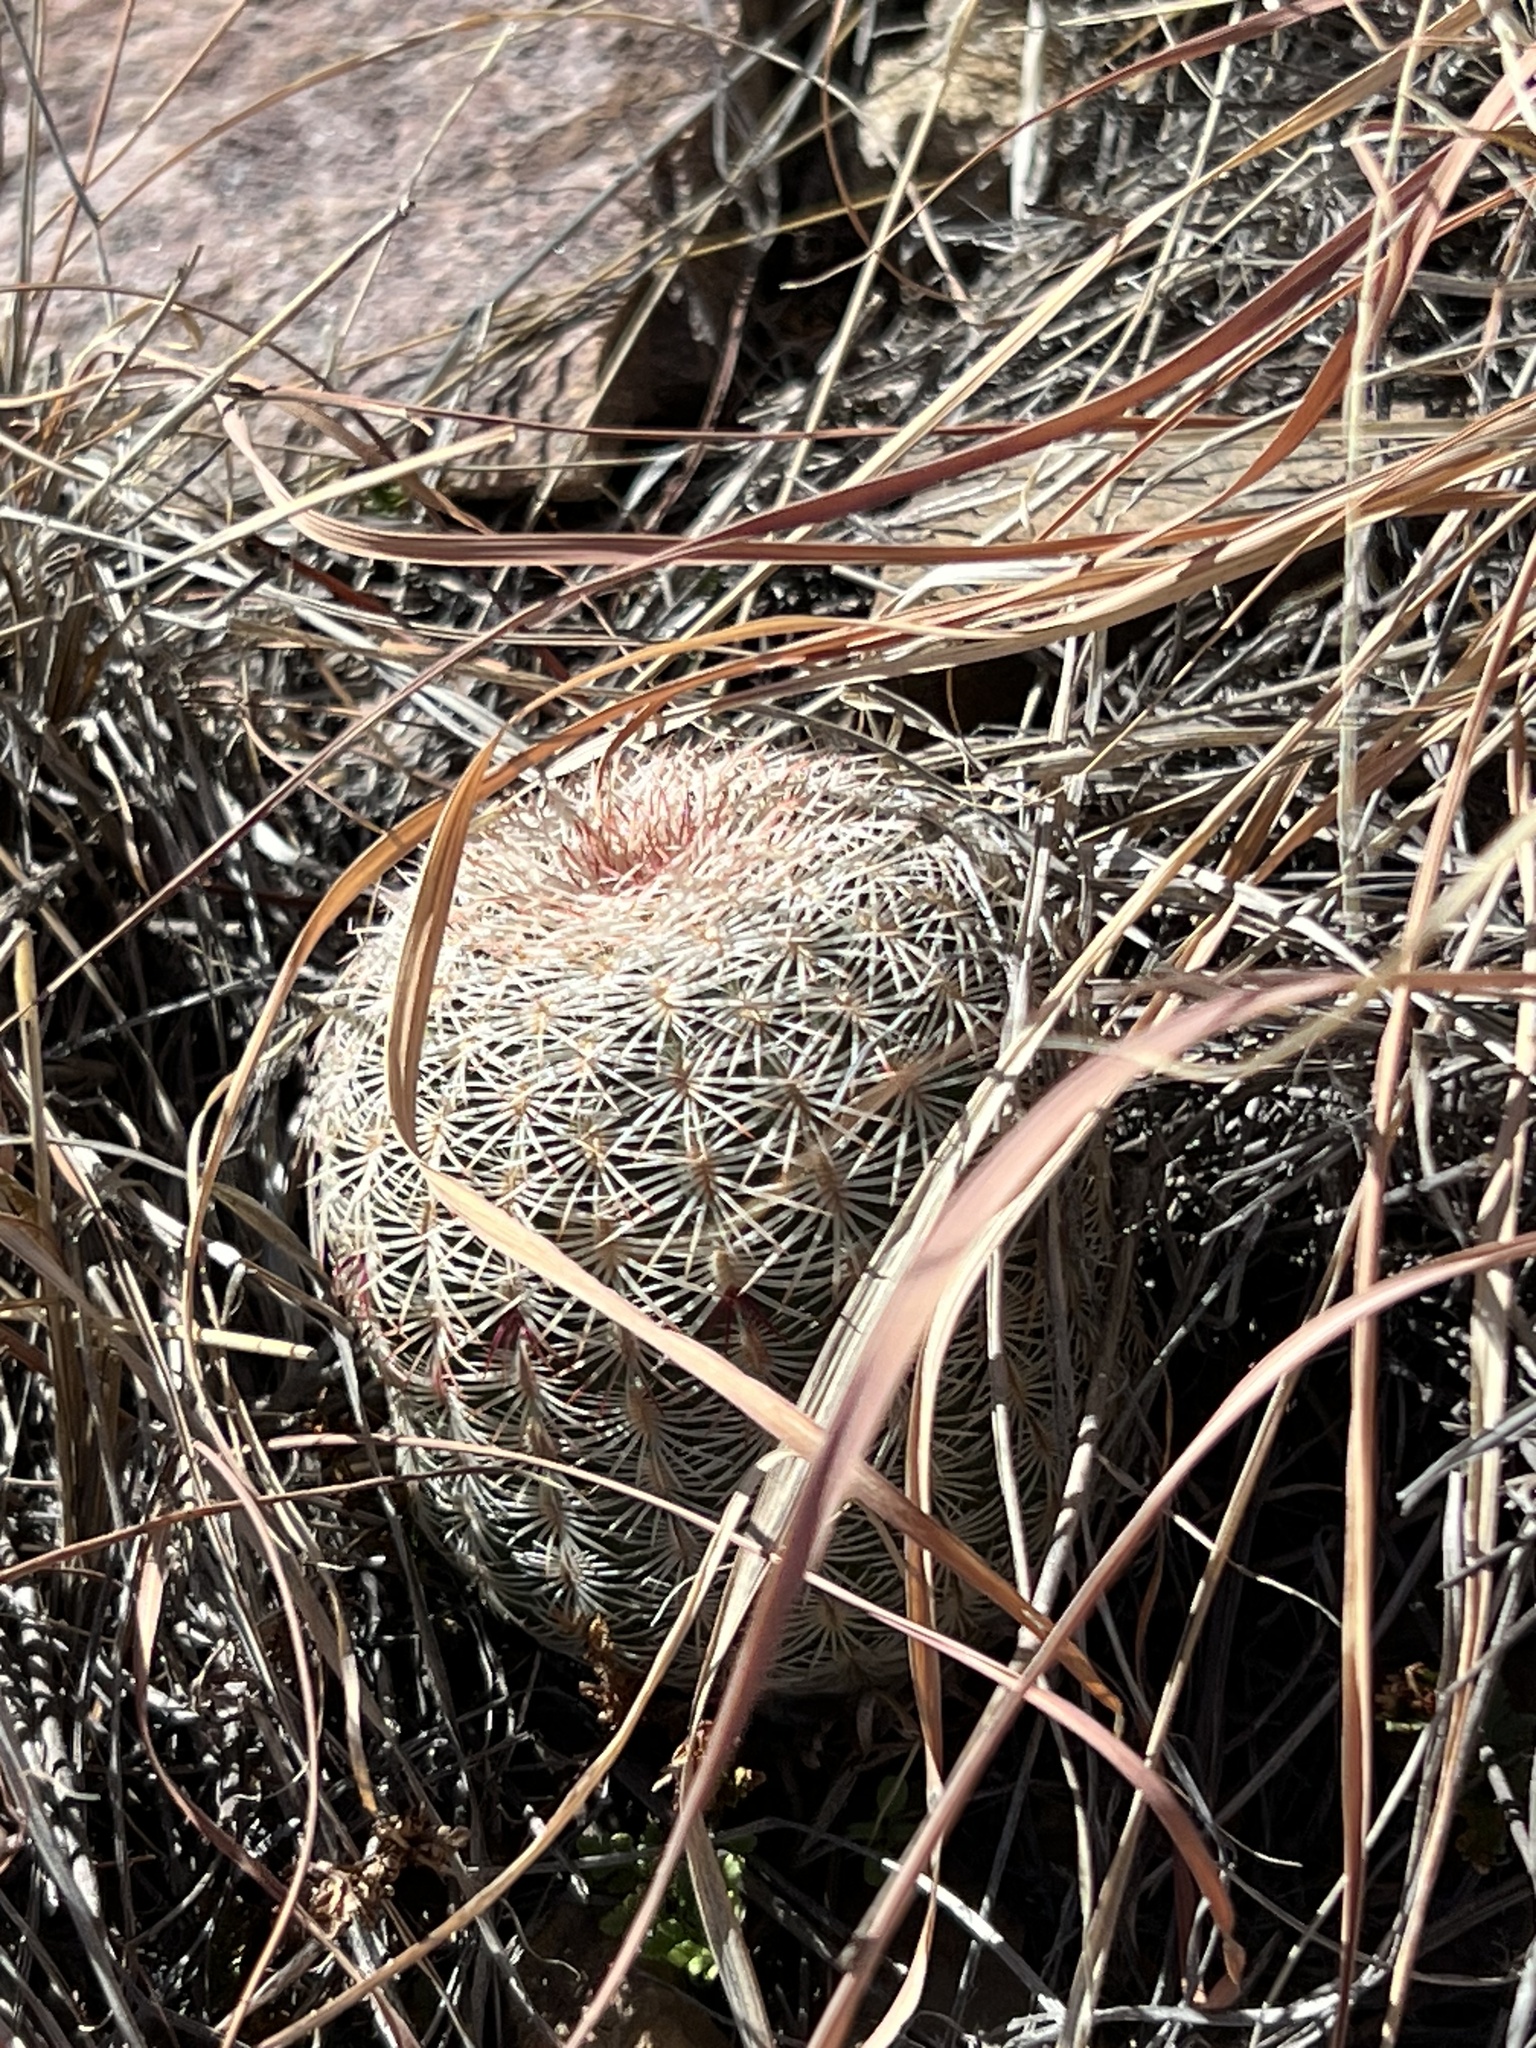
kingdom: Plantae
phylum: Tracheophyta
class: Magnoliopsida
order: Caryophyllales
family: Cactaceae
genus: Echinocereus
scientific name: Echinocereus rigidissimus
